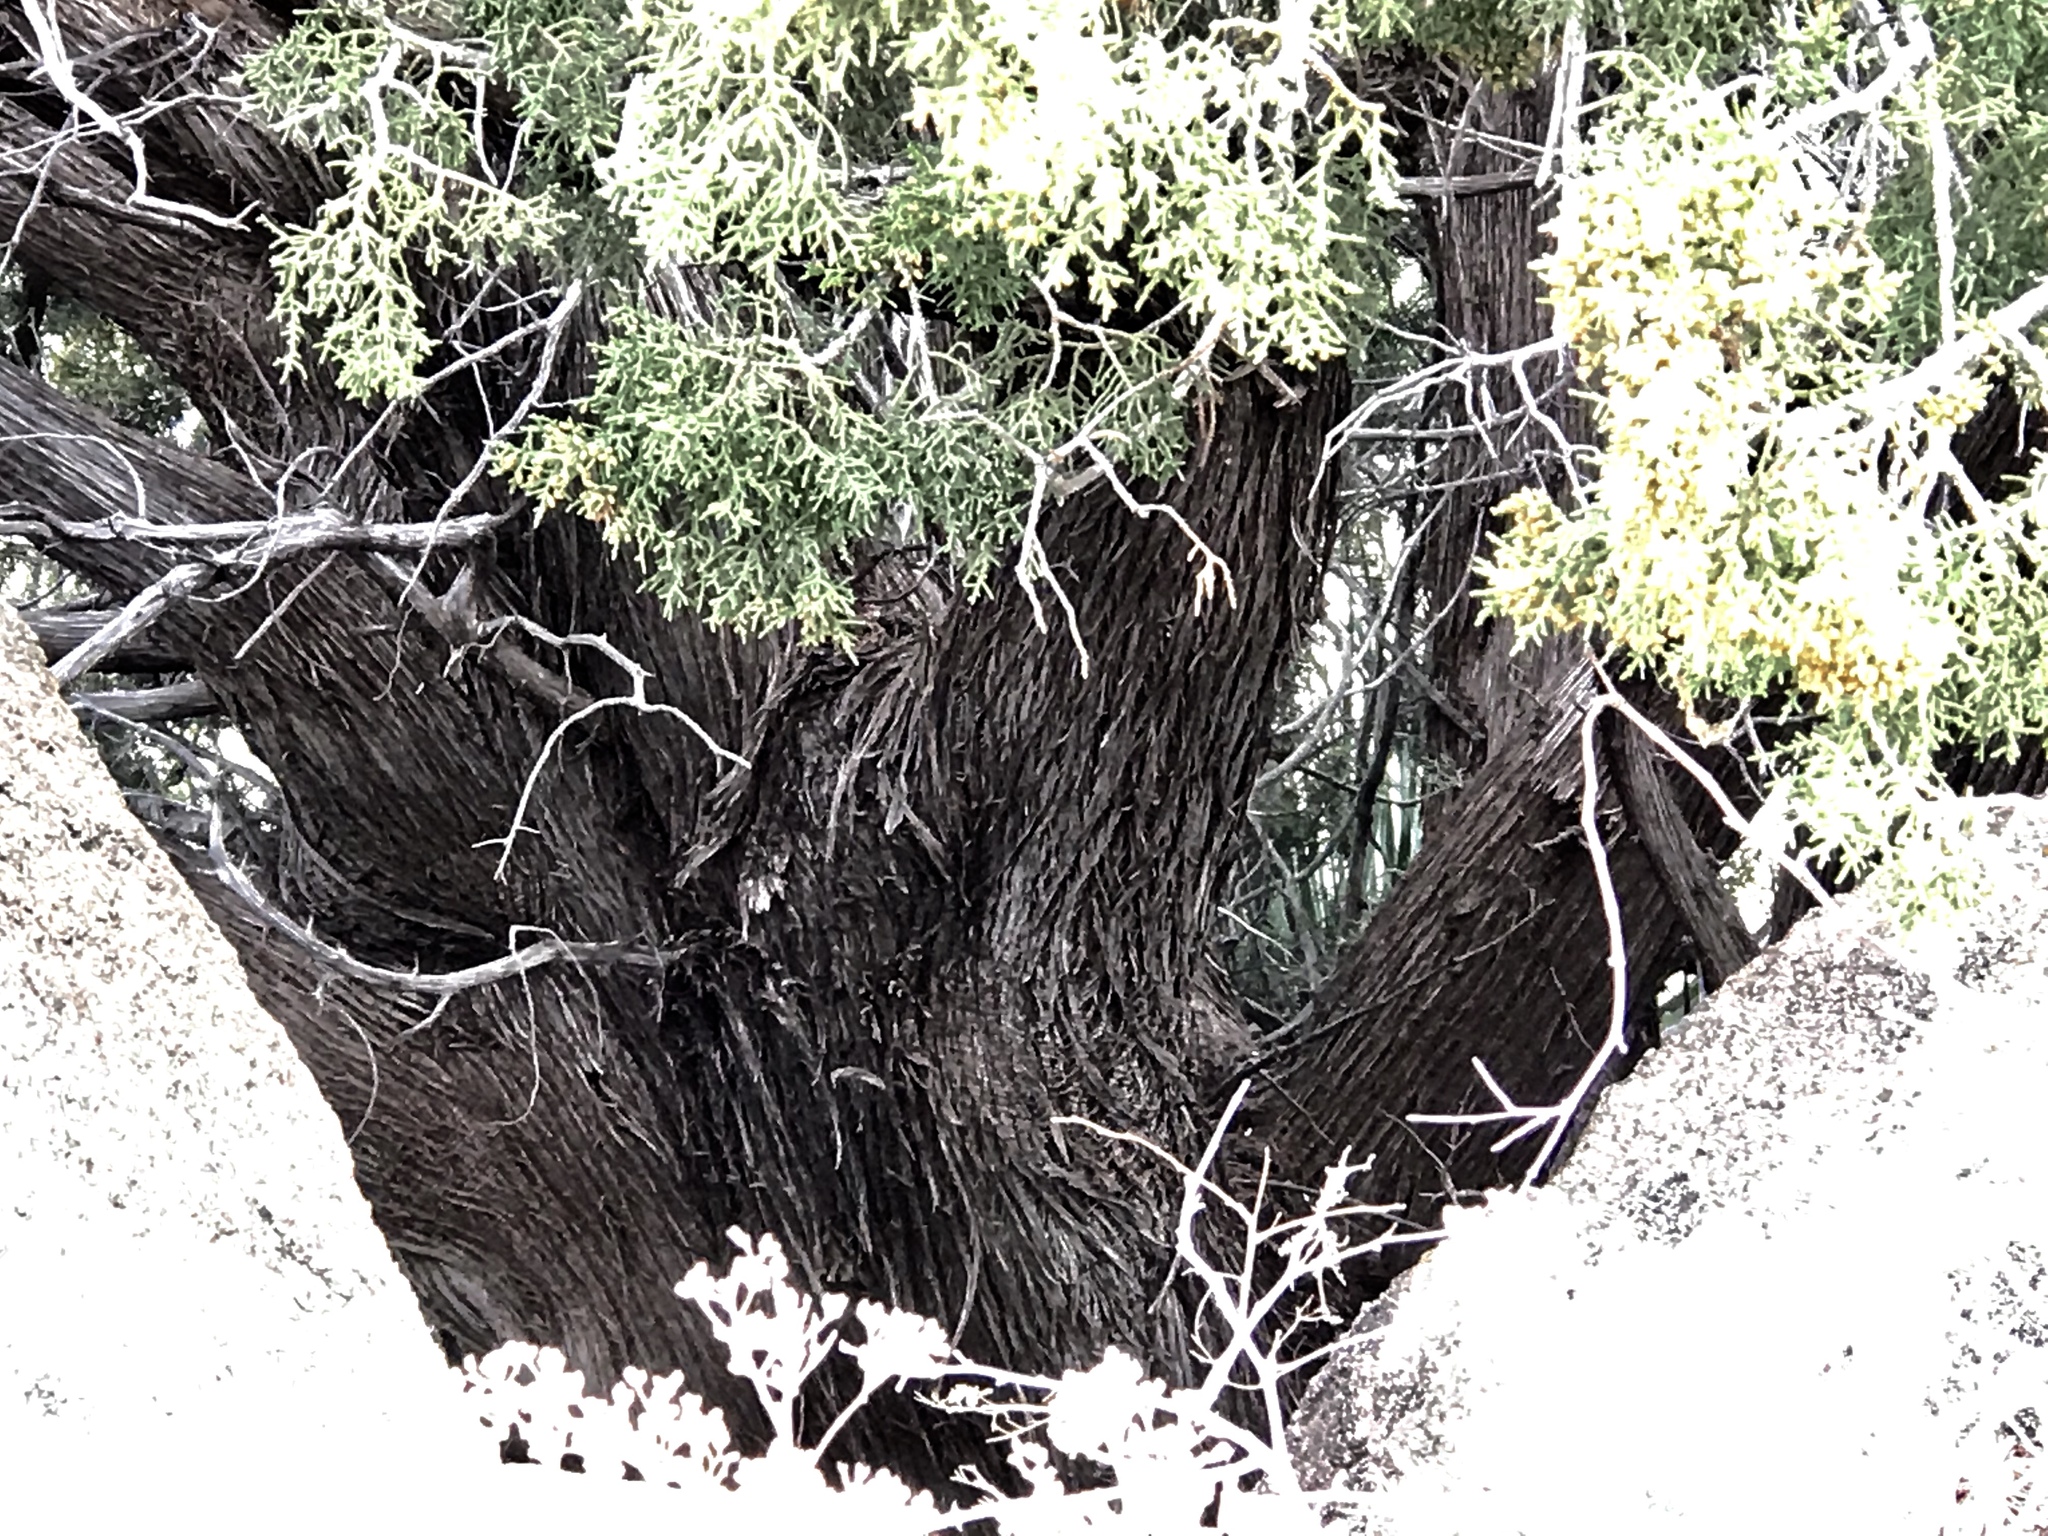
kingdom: Plantae
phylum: Tracheophyta
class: Pinopsida
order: Pinales
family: Cupressaceae
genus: Juniperus
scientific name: Juniperus monosperma
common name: One-seed juniper
